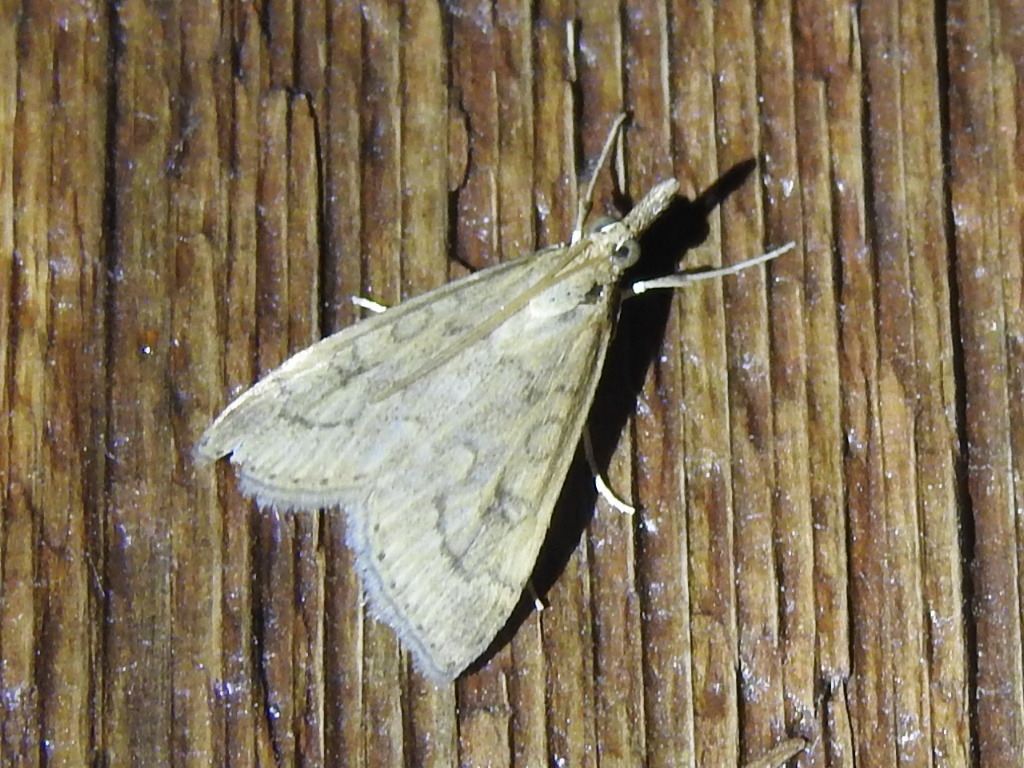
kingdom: Animalia
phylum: Arthropoda
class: Insecta
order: Lepidoptera
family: Crambidae
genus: Udea
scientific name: Udea rubigalis
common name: Celery leaftier moth
